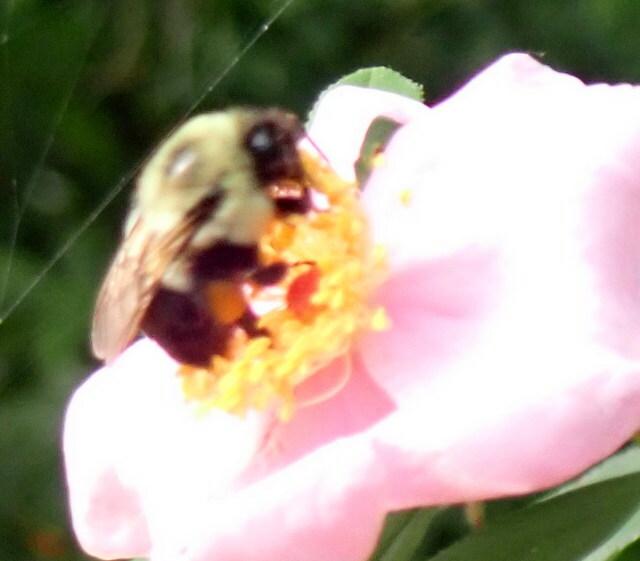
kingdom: Animalia
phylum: Arthropoda
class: Insecta
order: Hymenoptera
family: Apidae
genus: Bombus
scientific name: Bombus impatiens
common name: Common eastern bumble bee
